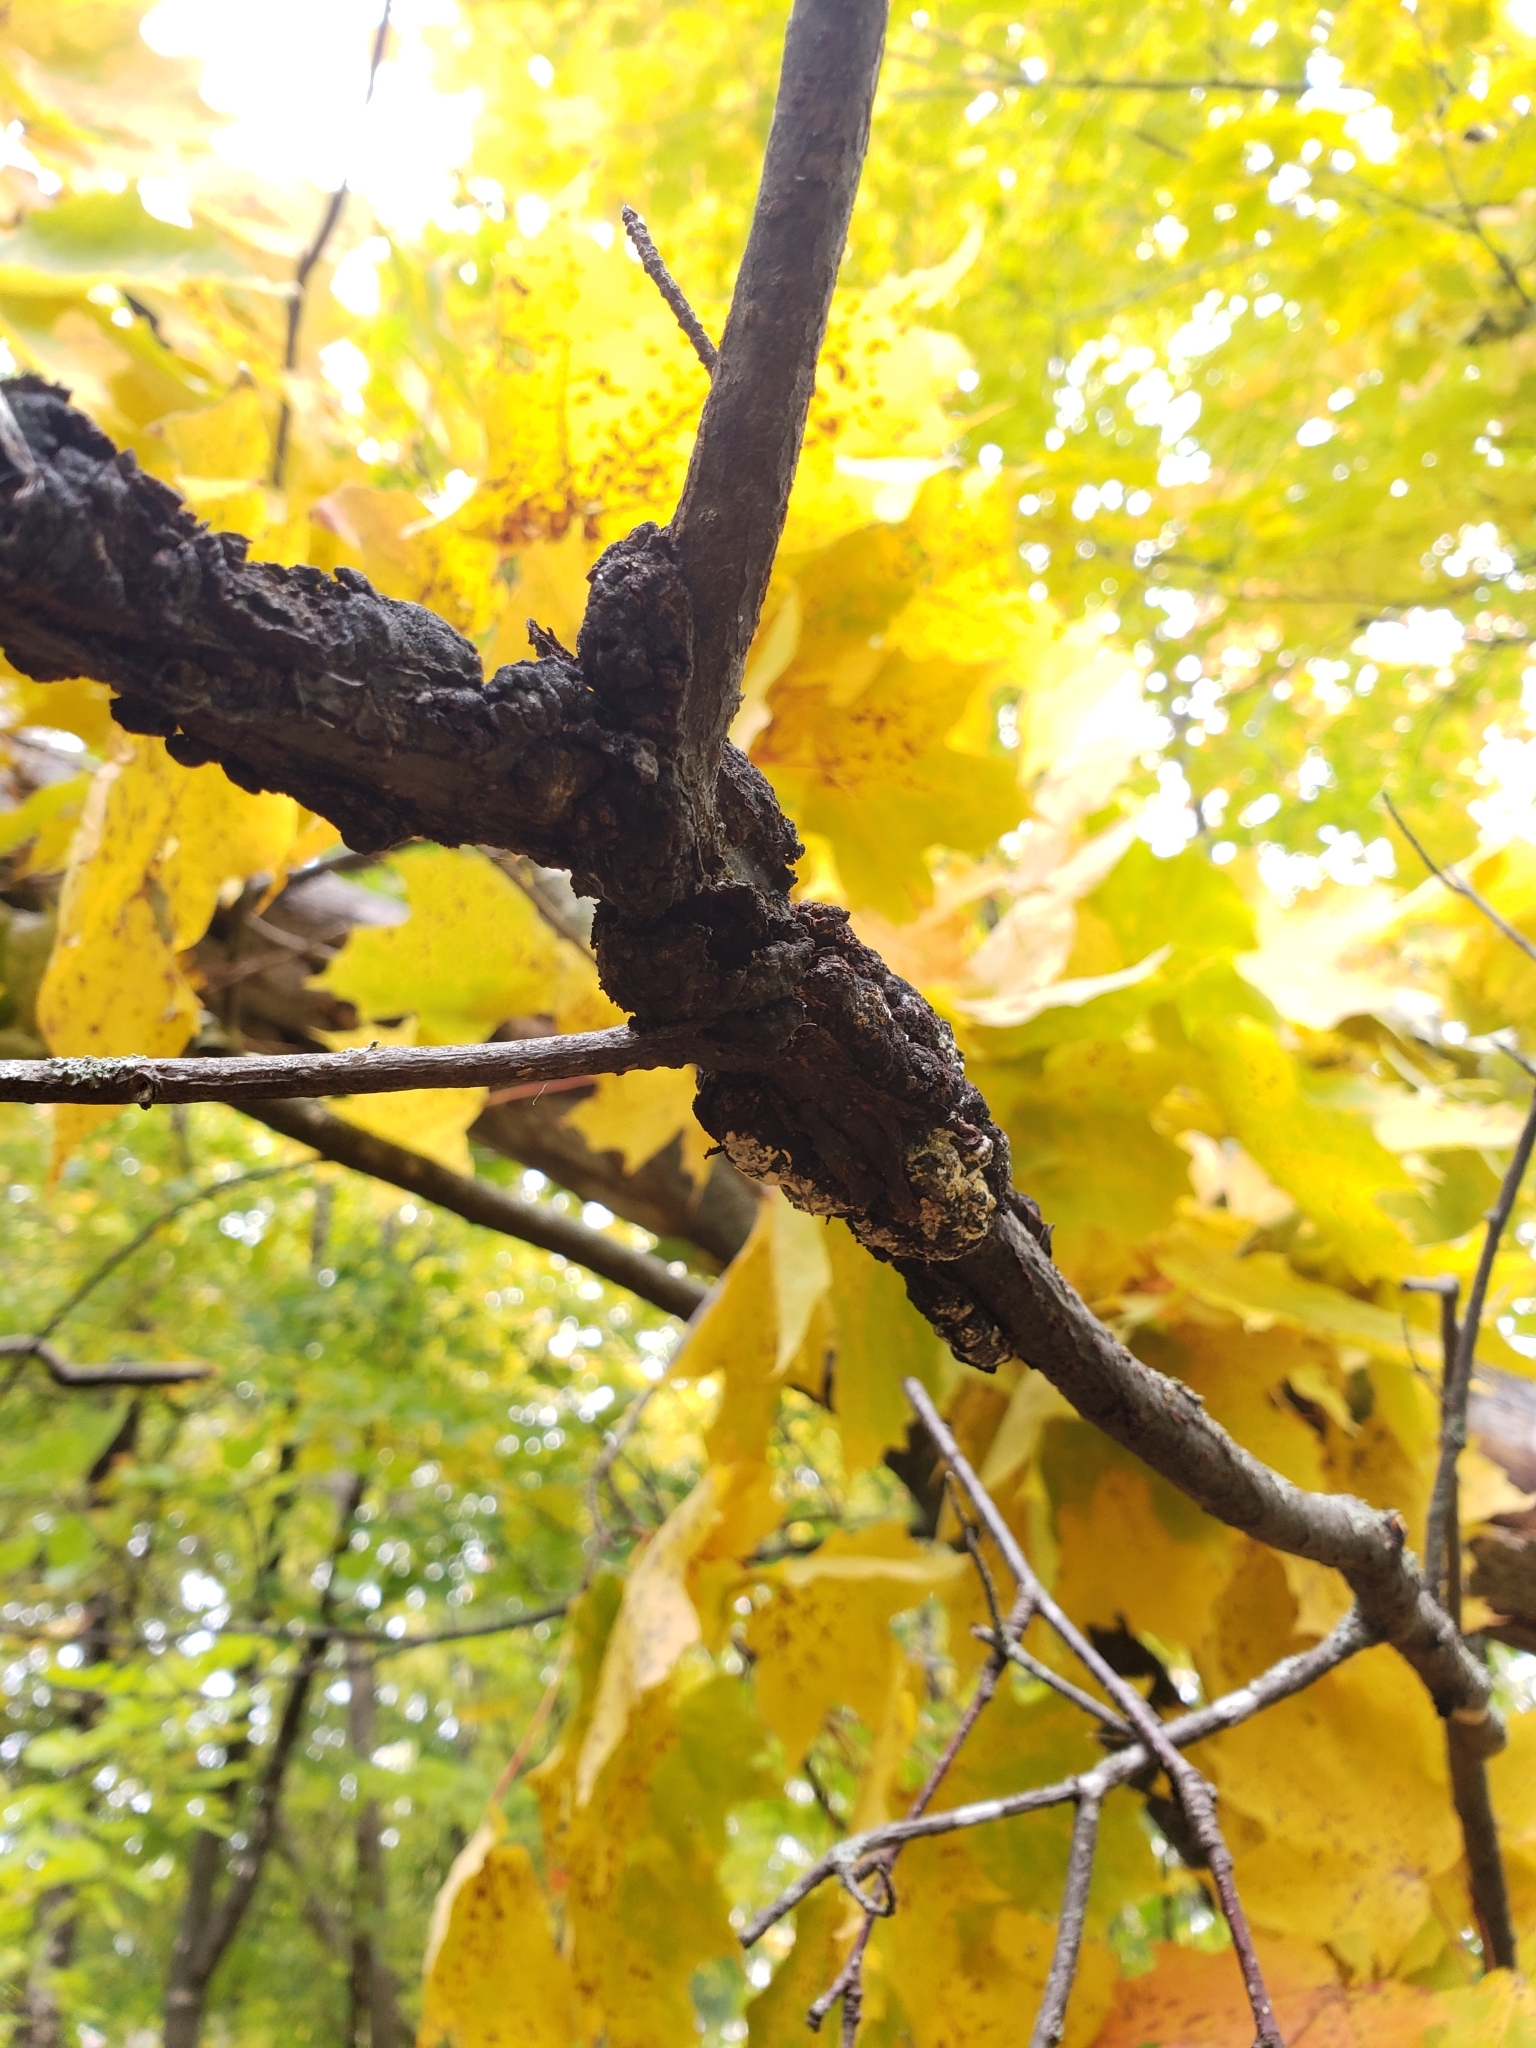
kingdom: Fungi
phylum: Ascomycota
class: Dothideomycetes
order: Venturiales
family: Venturiaceae
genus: Apiosporina
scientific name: Apiosporina morbosa
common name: Black knot
